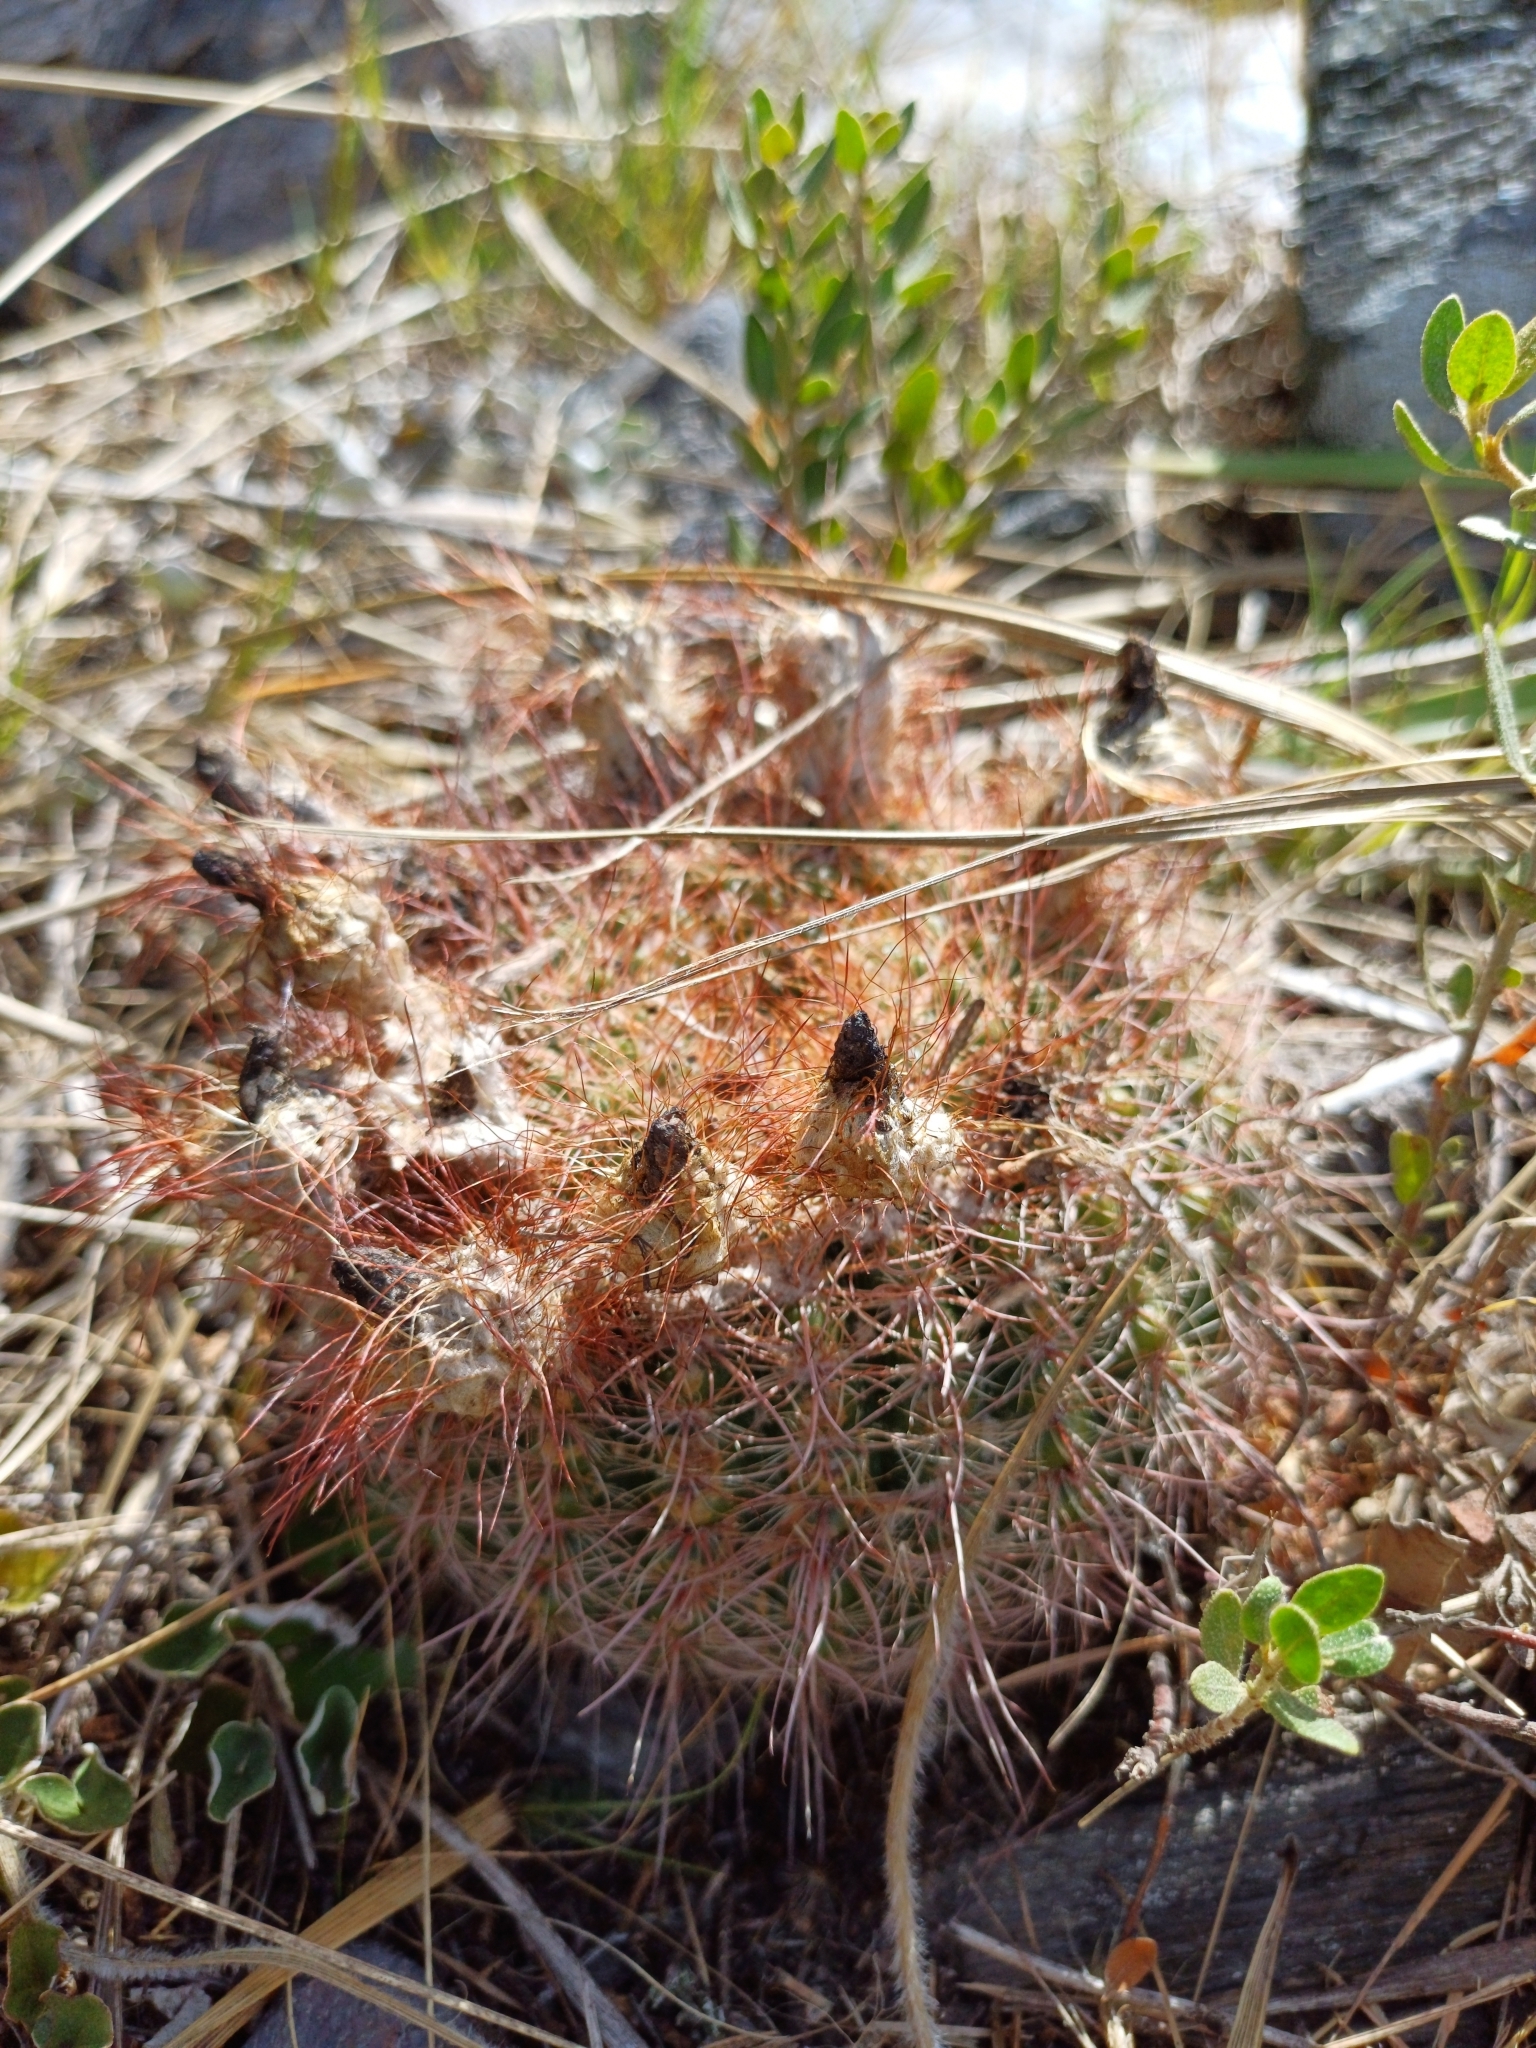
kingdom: Plantae
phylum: Tracheophyta
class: Magnoliopsida
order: Caryophyllales
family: Cactaceae
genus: Parodia
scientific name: Parodia concinna
